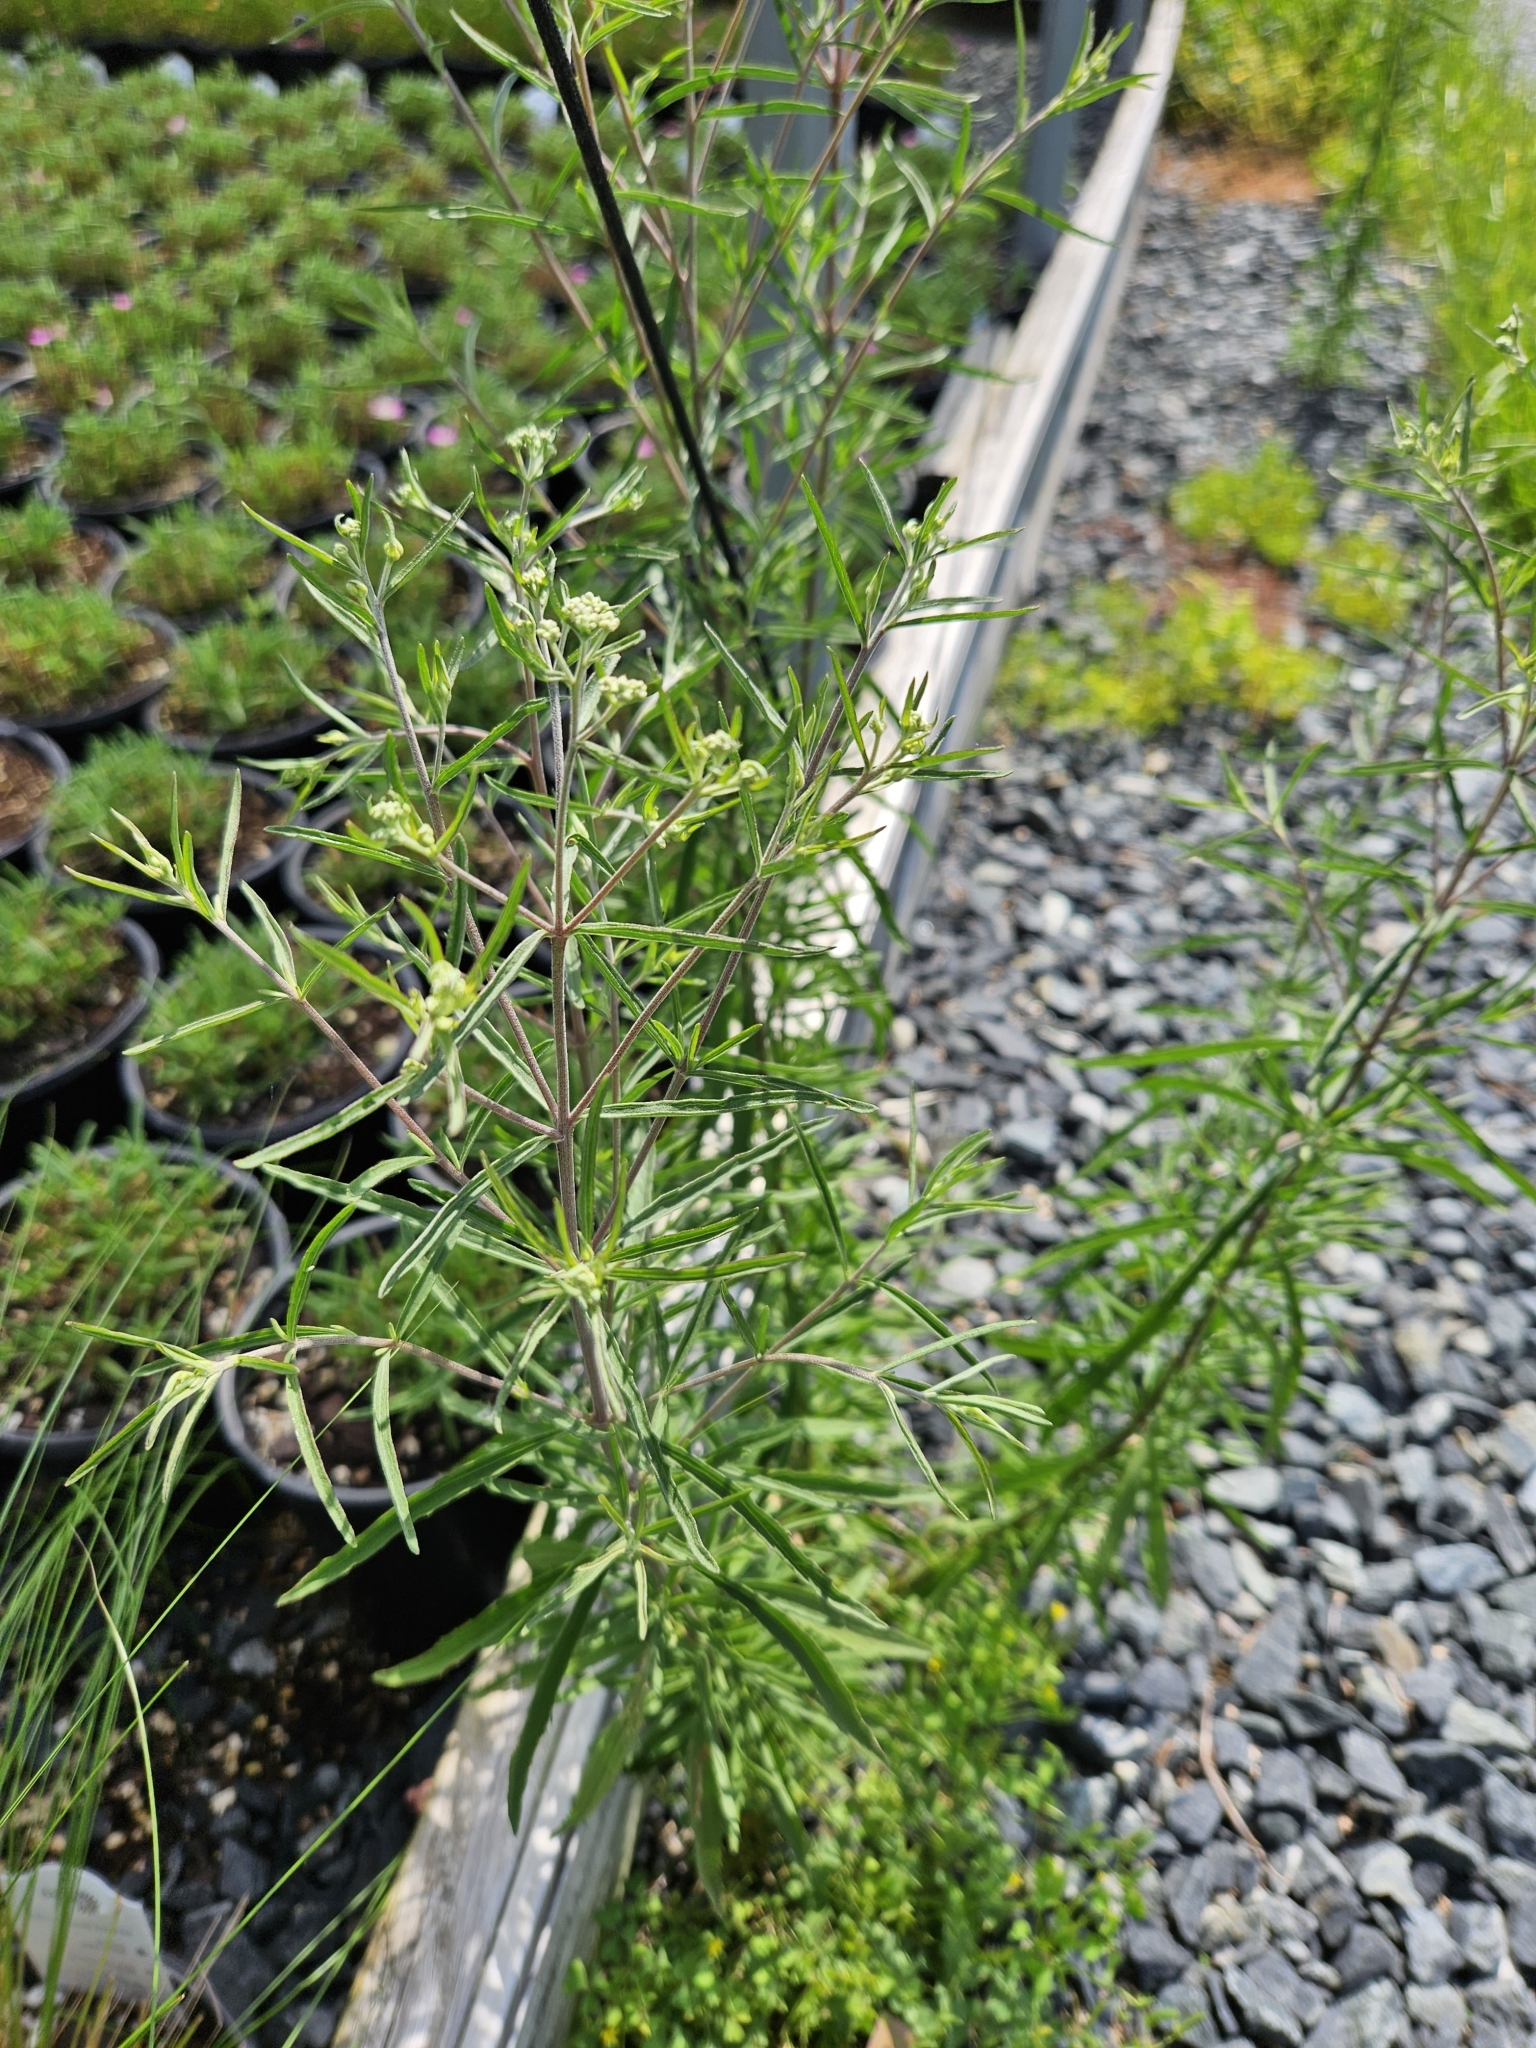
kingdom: Plantae
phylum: Tracheophyta
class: Magnoliopsida
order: Asterales
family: Asteraceae
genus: Eupatorium
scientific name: Eupatorium torreyanum
